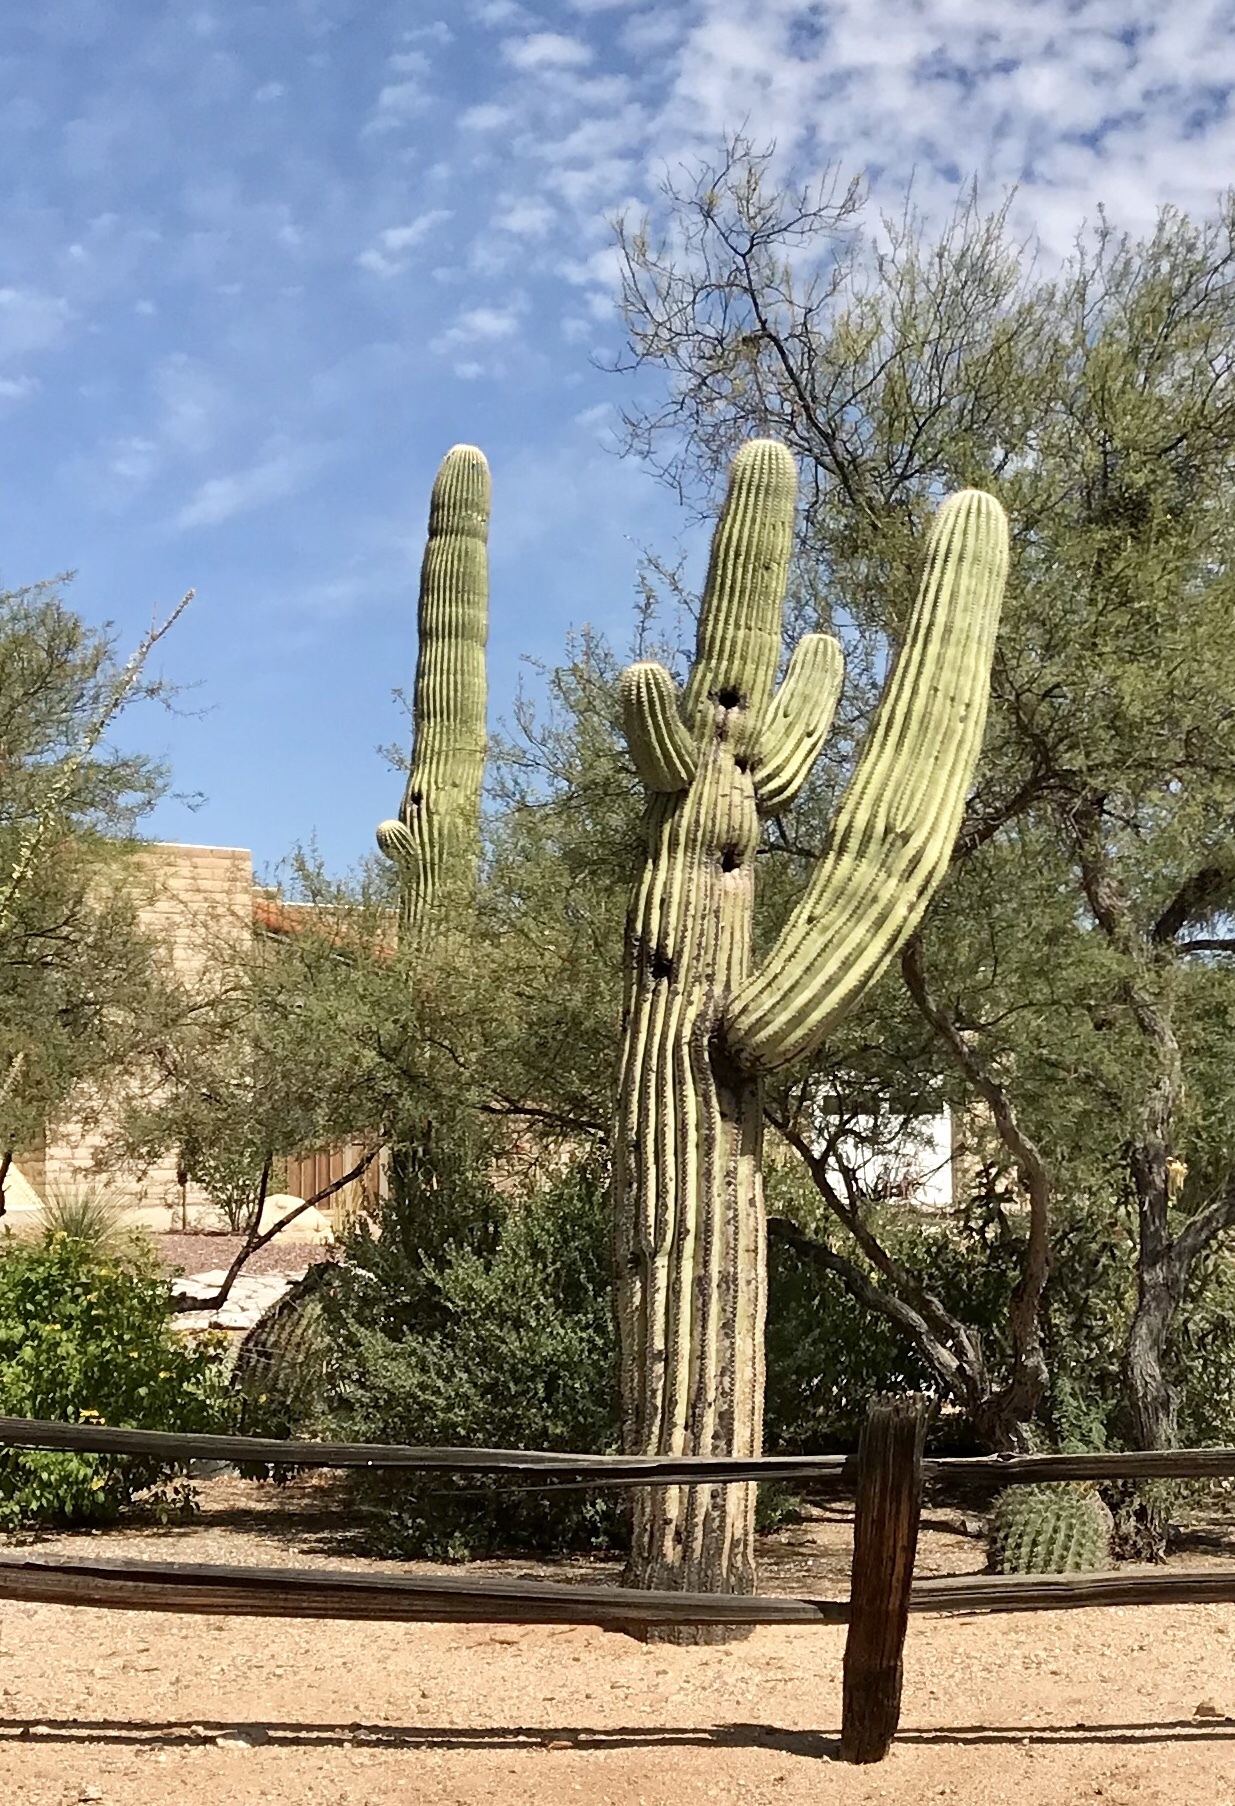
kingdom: Plantae
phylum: Tracheophyta
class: Magnoliopsida
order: Caryophyllales
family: Cactaceae
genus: Carnegiea
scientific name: Carnegiea gigantea
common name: Saguaro
